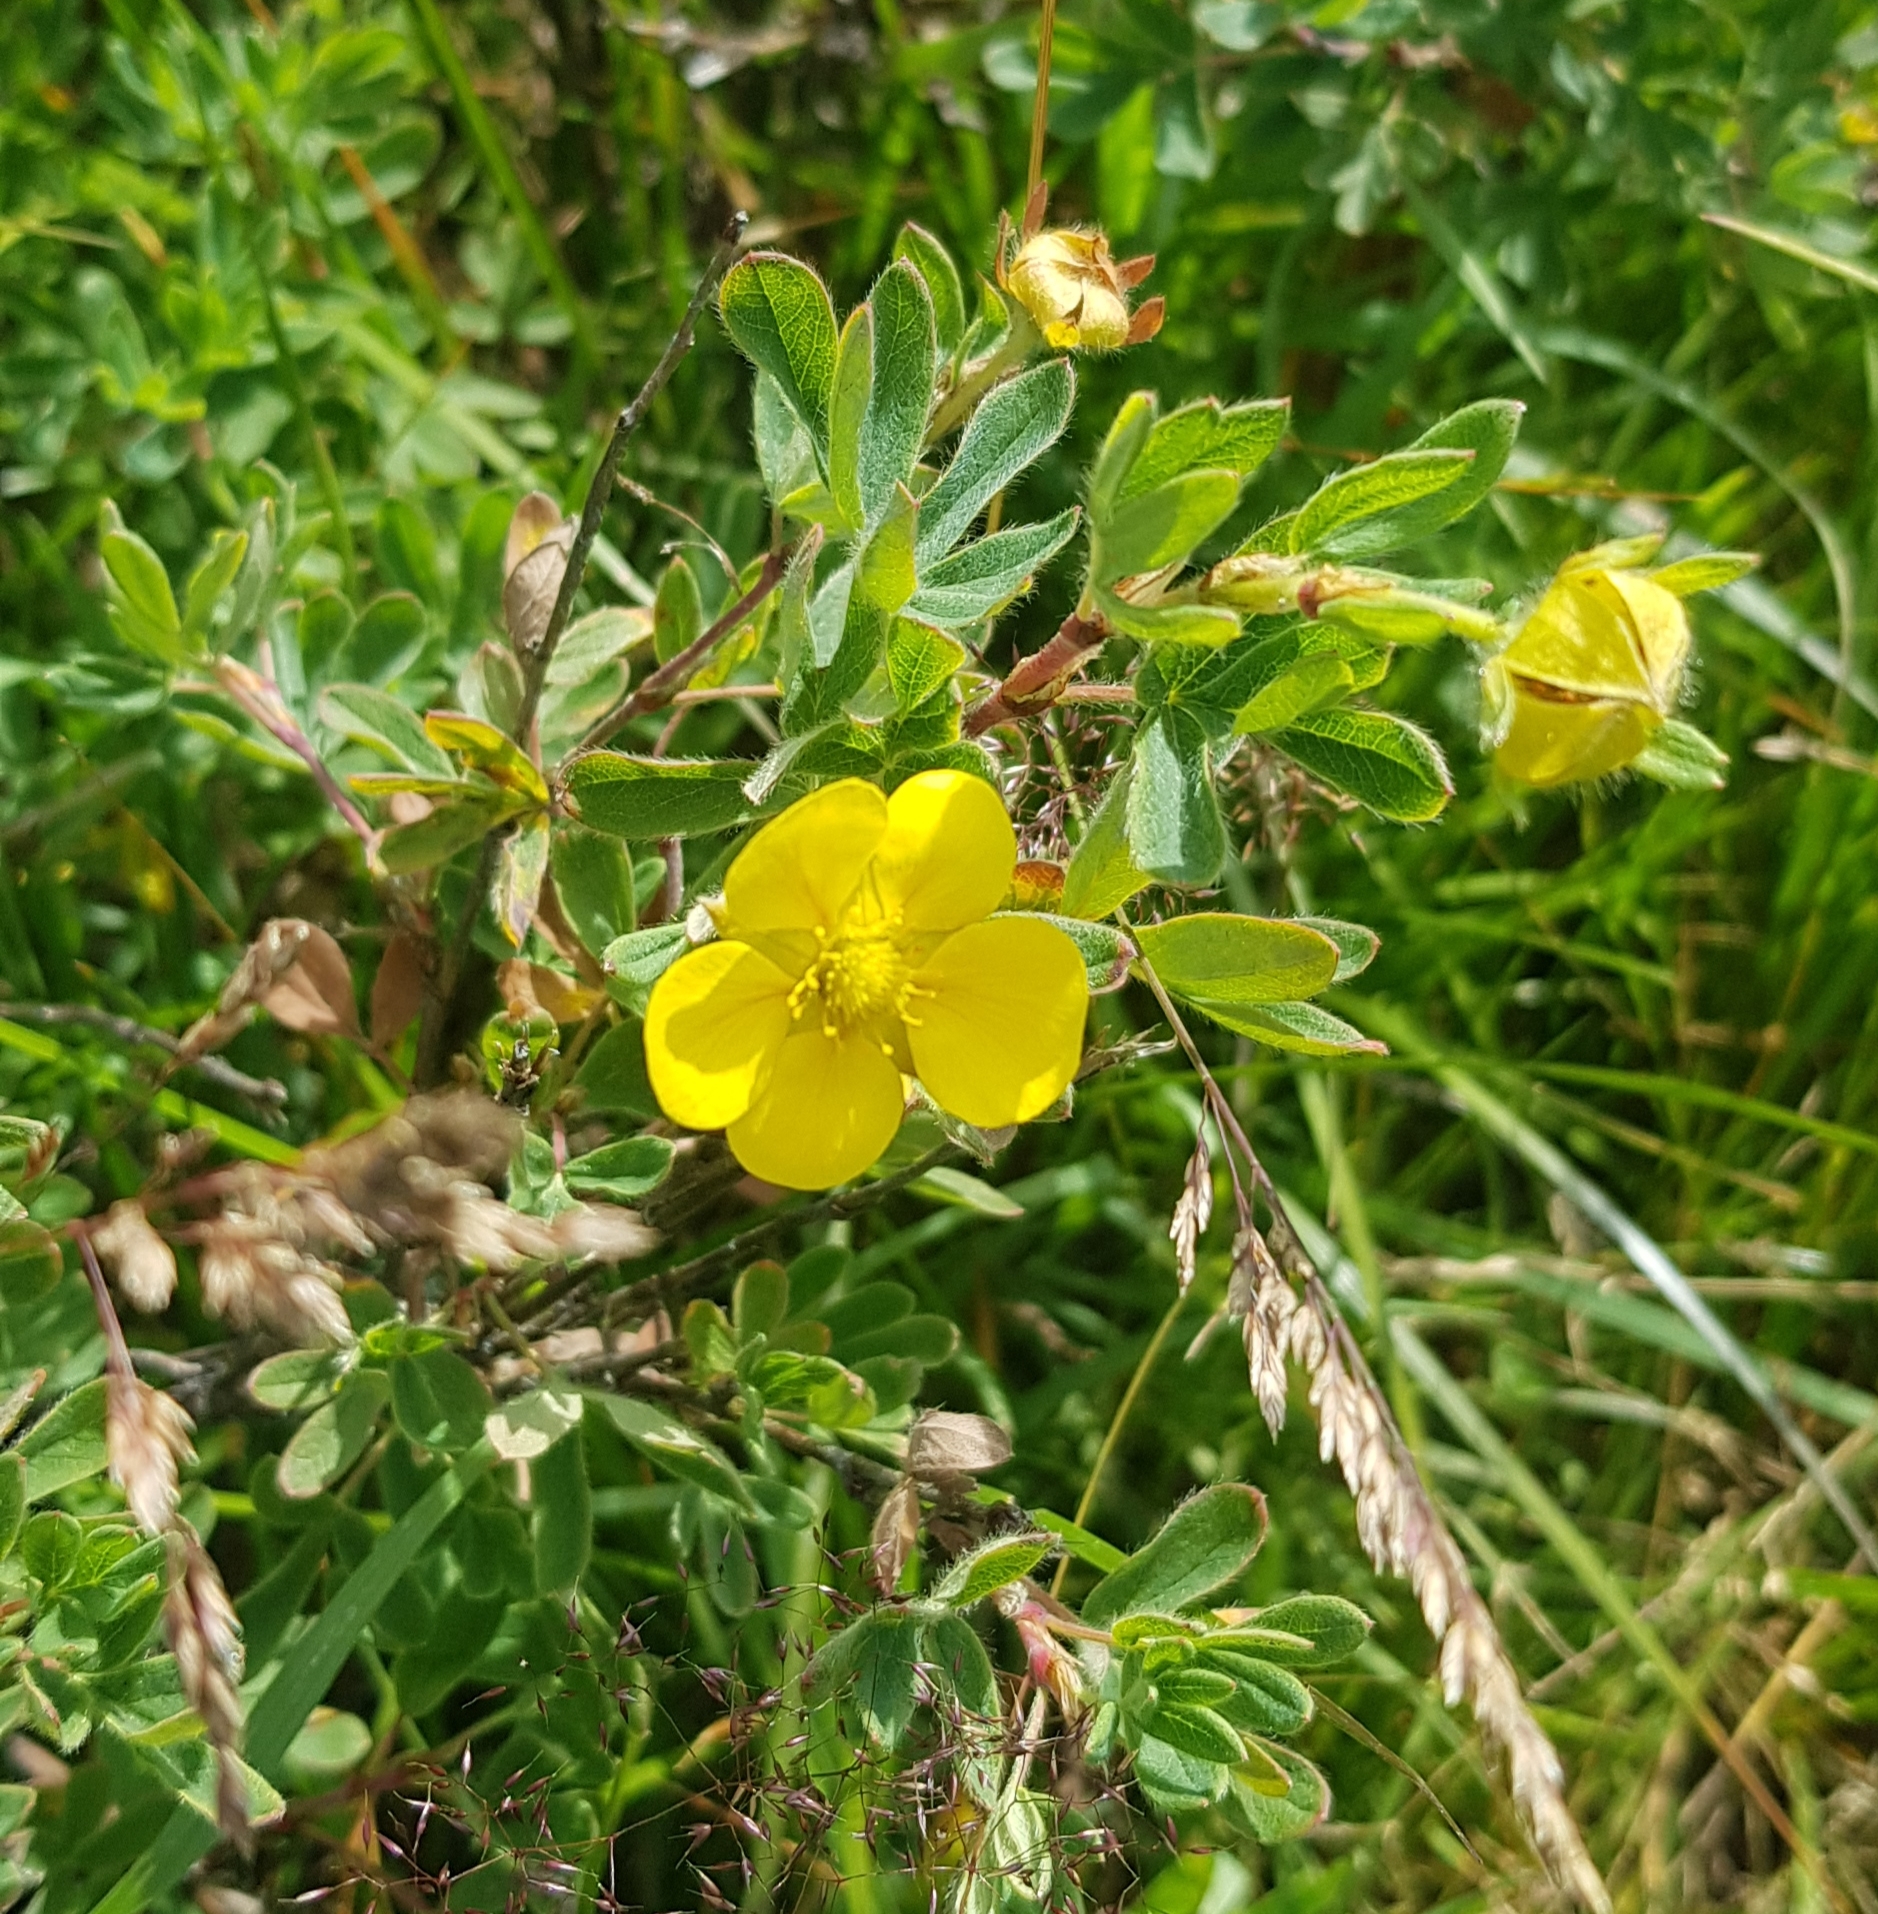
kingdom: Plantae
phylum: Tracheophyta
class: Magnoliopsida
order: Rosales
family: Rosaceae
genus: Dasiphora
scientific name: Dasiphora fruticosa
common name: Shrubby cinquefoil
